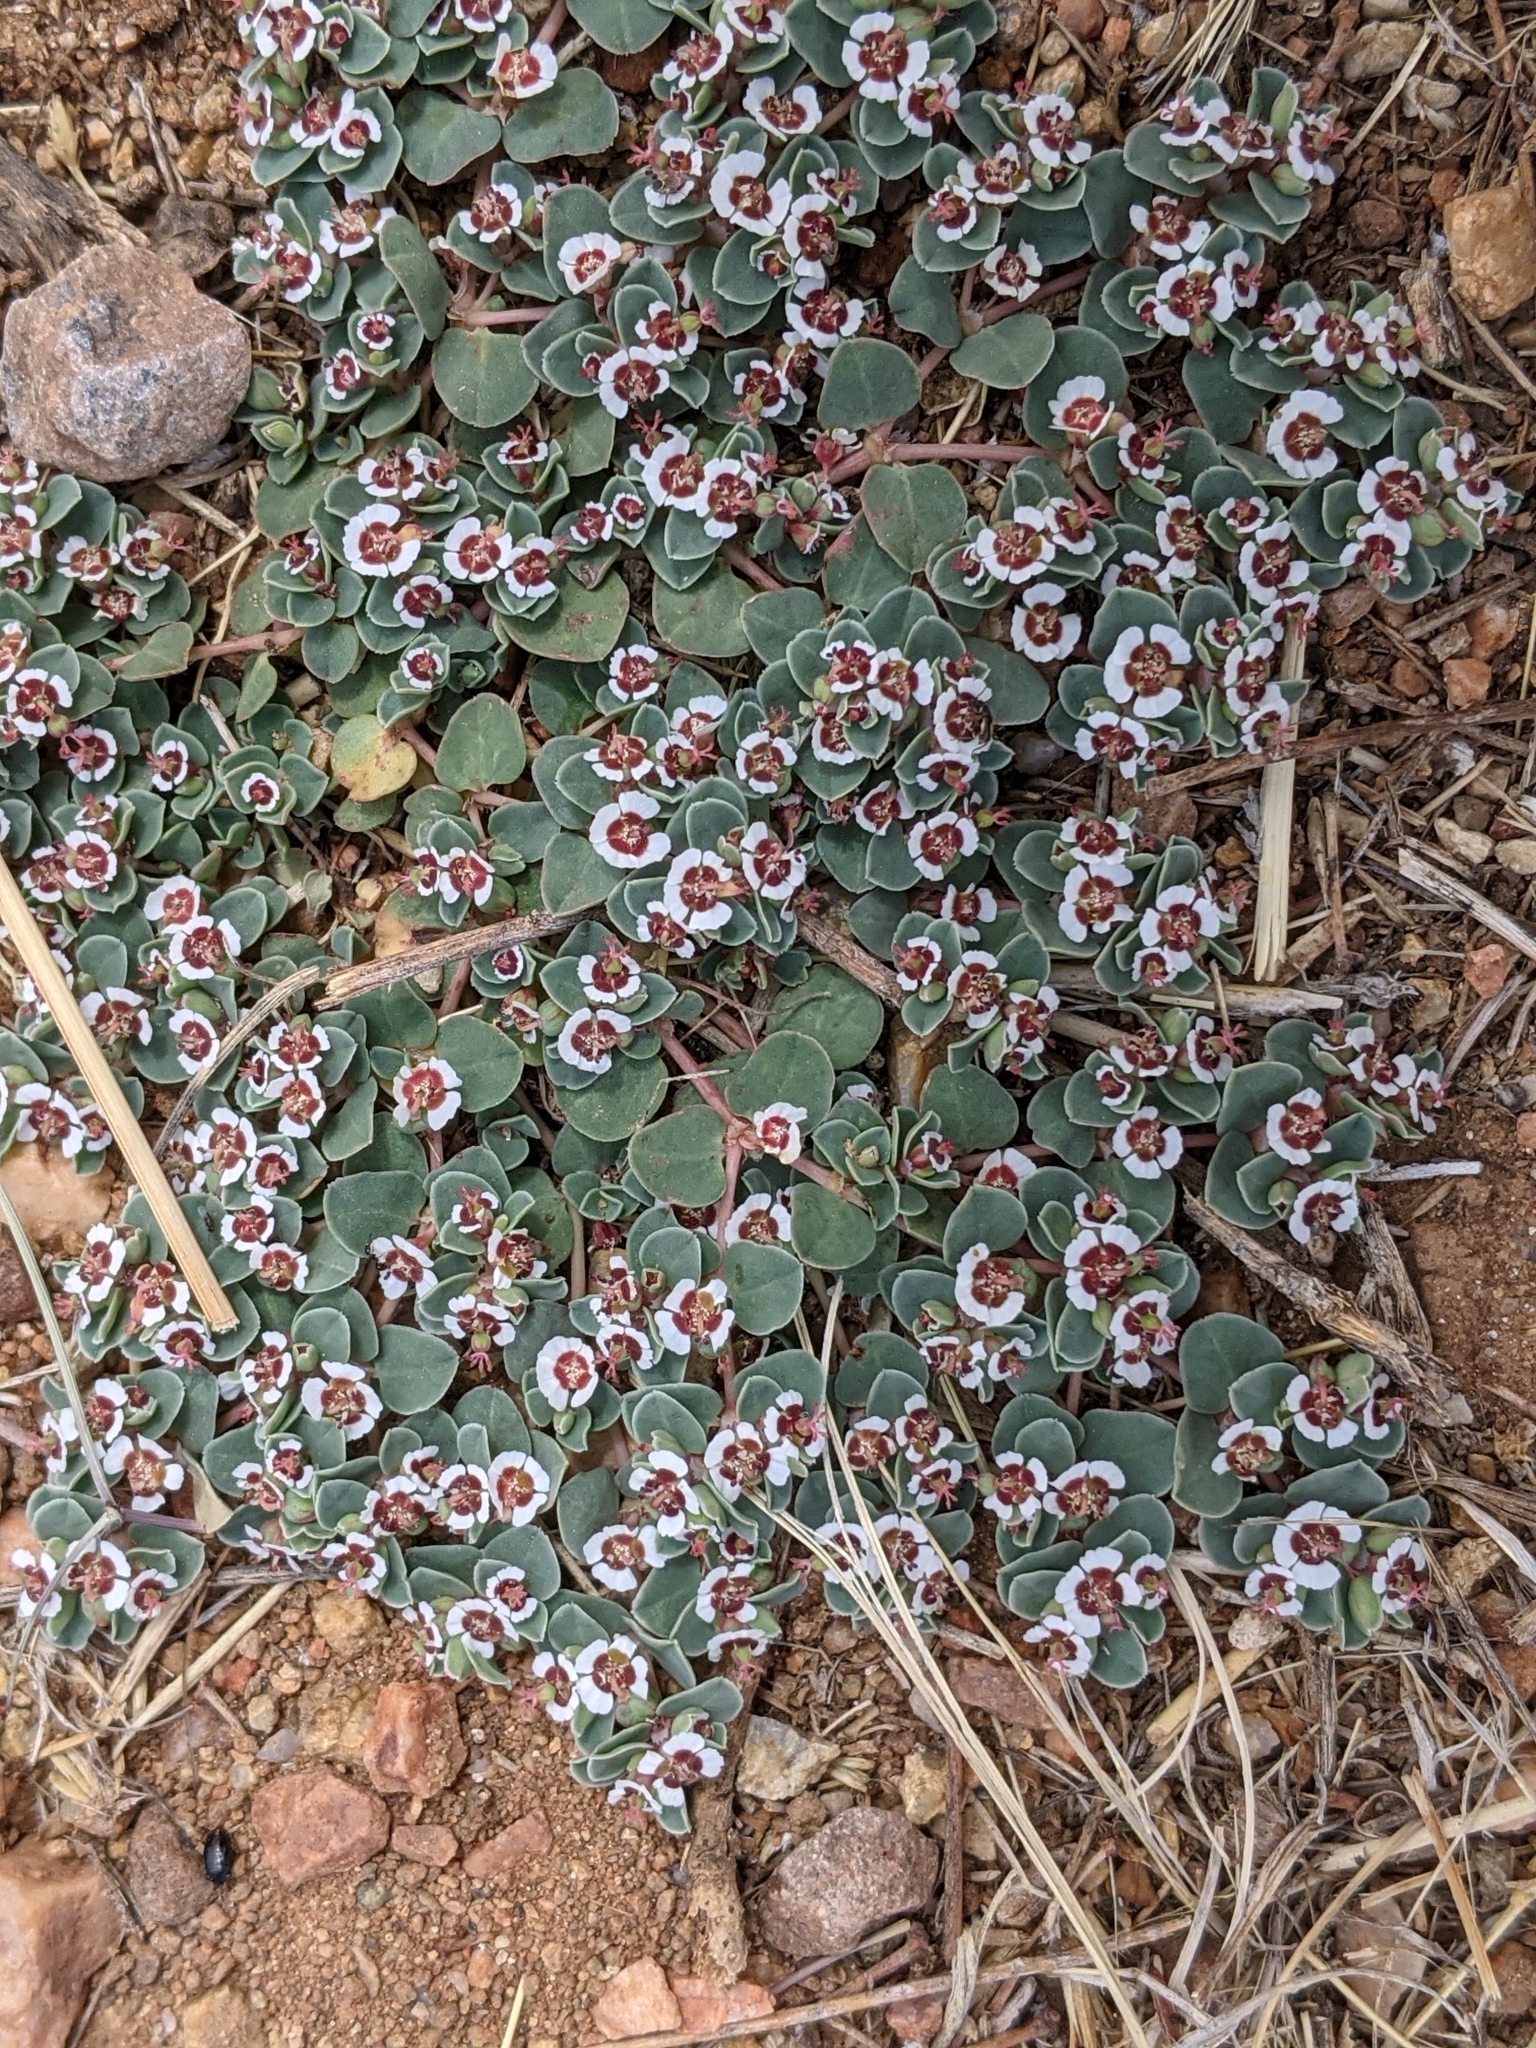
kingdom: Plantae
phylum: Tracheophyta
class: Magnoliopsida
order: Malpighiales
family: Euphorbiaceae
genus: Euphorbia
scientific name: Euphorbia albomarginata
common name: Whitemargin sandmat
